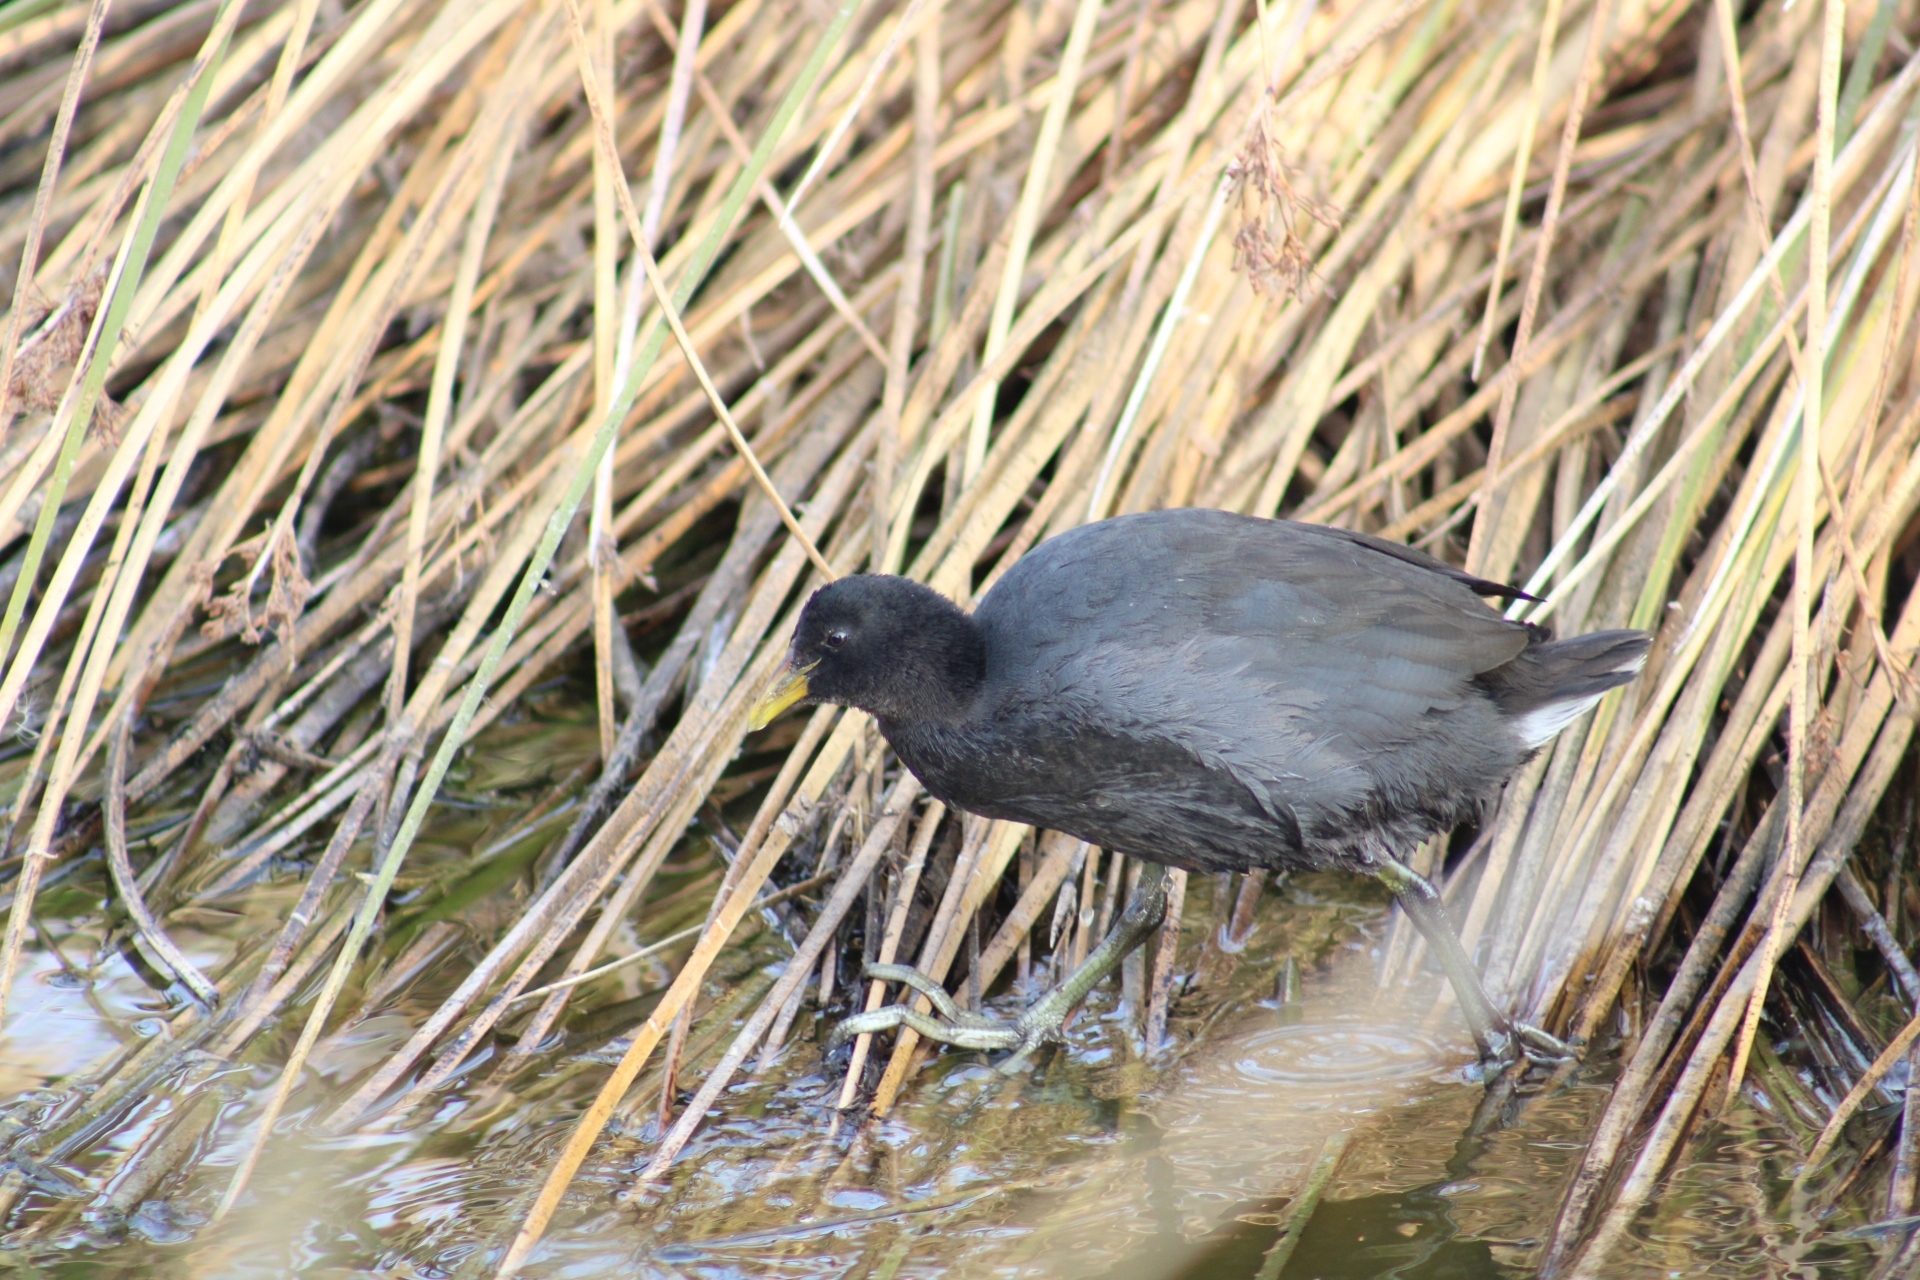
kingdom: Animalia
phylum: Chordata
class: Aves
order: Gruiformes
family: Rallidae
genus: Fulica
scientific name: Fulica rufifrons
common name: Red-fronted coot
